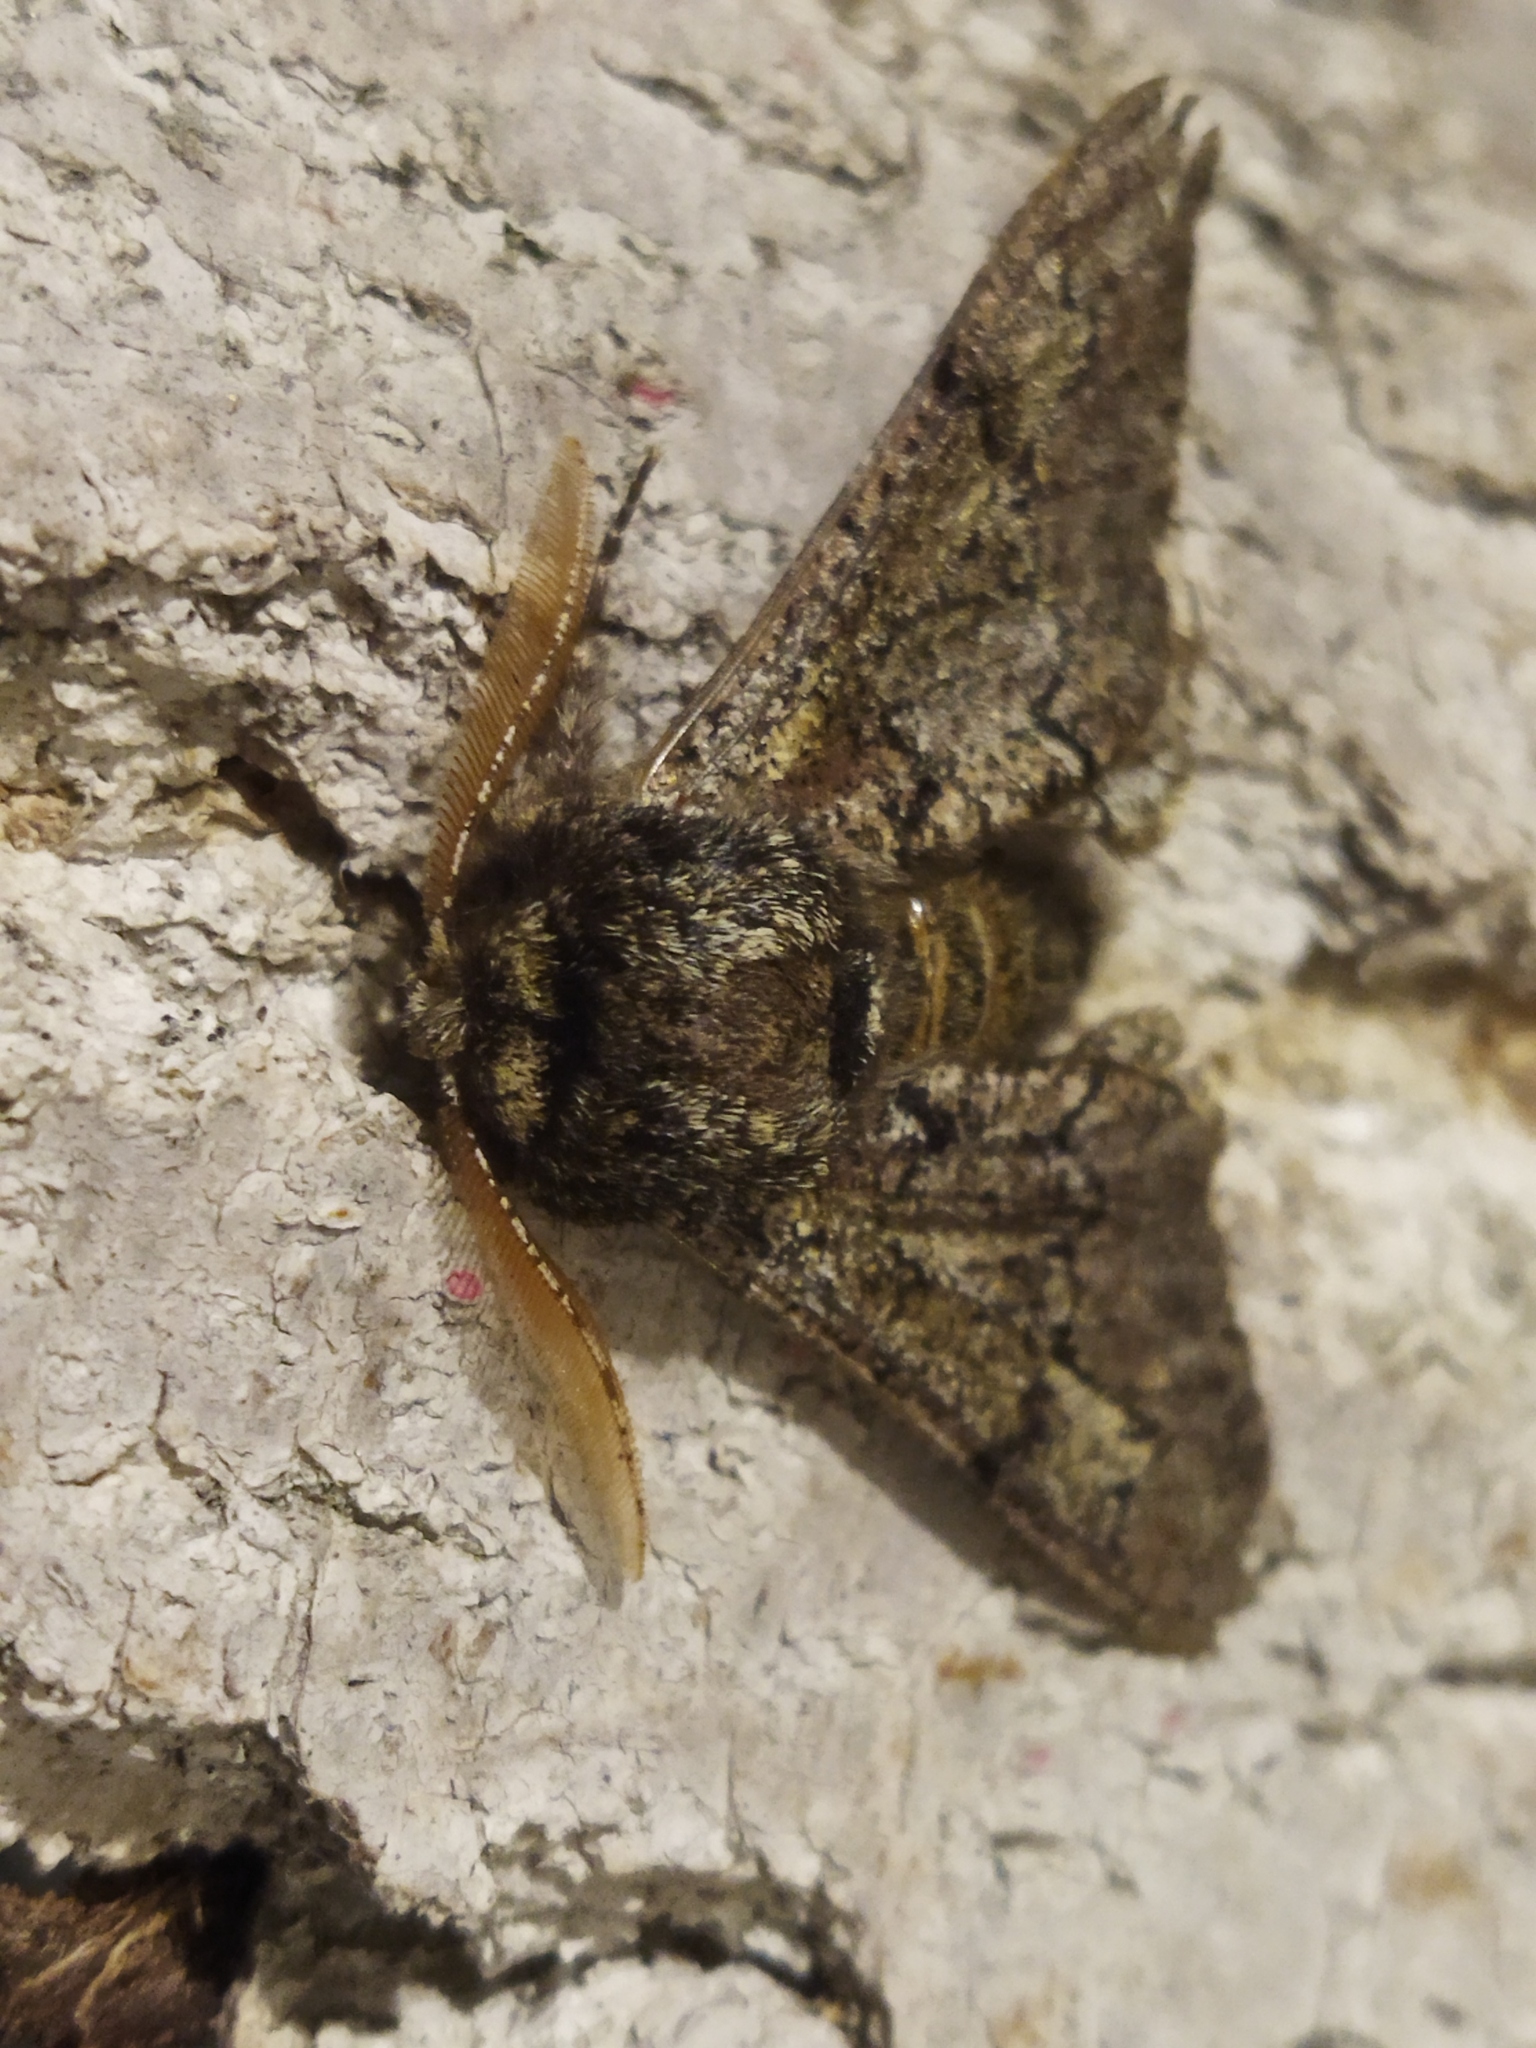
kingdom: Animalia
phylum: Arthropoda
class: Insecta
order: Lepidoptera
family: Geometridae
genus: Biston
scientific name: Biston strataria
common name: Oak beauty
